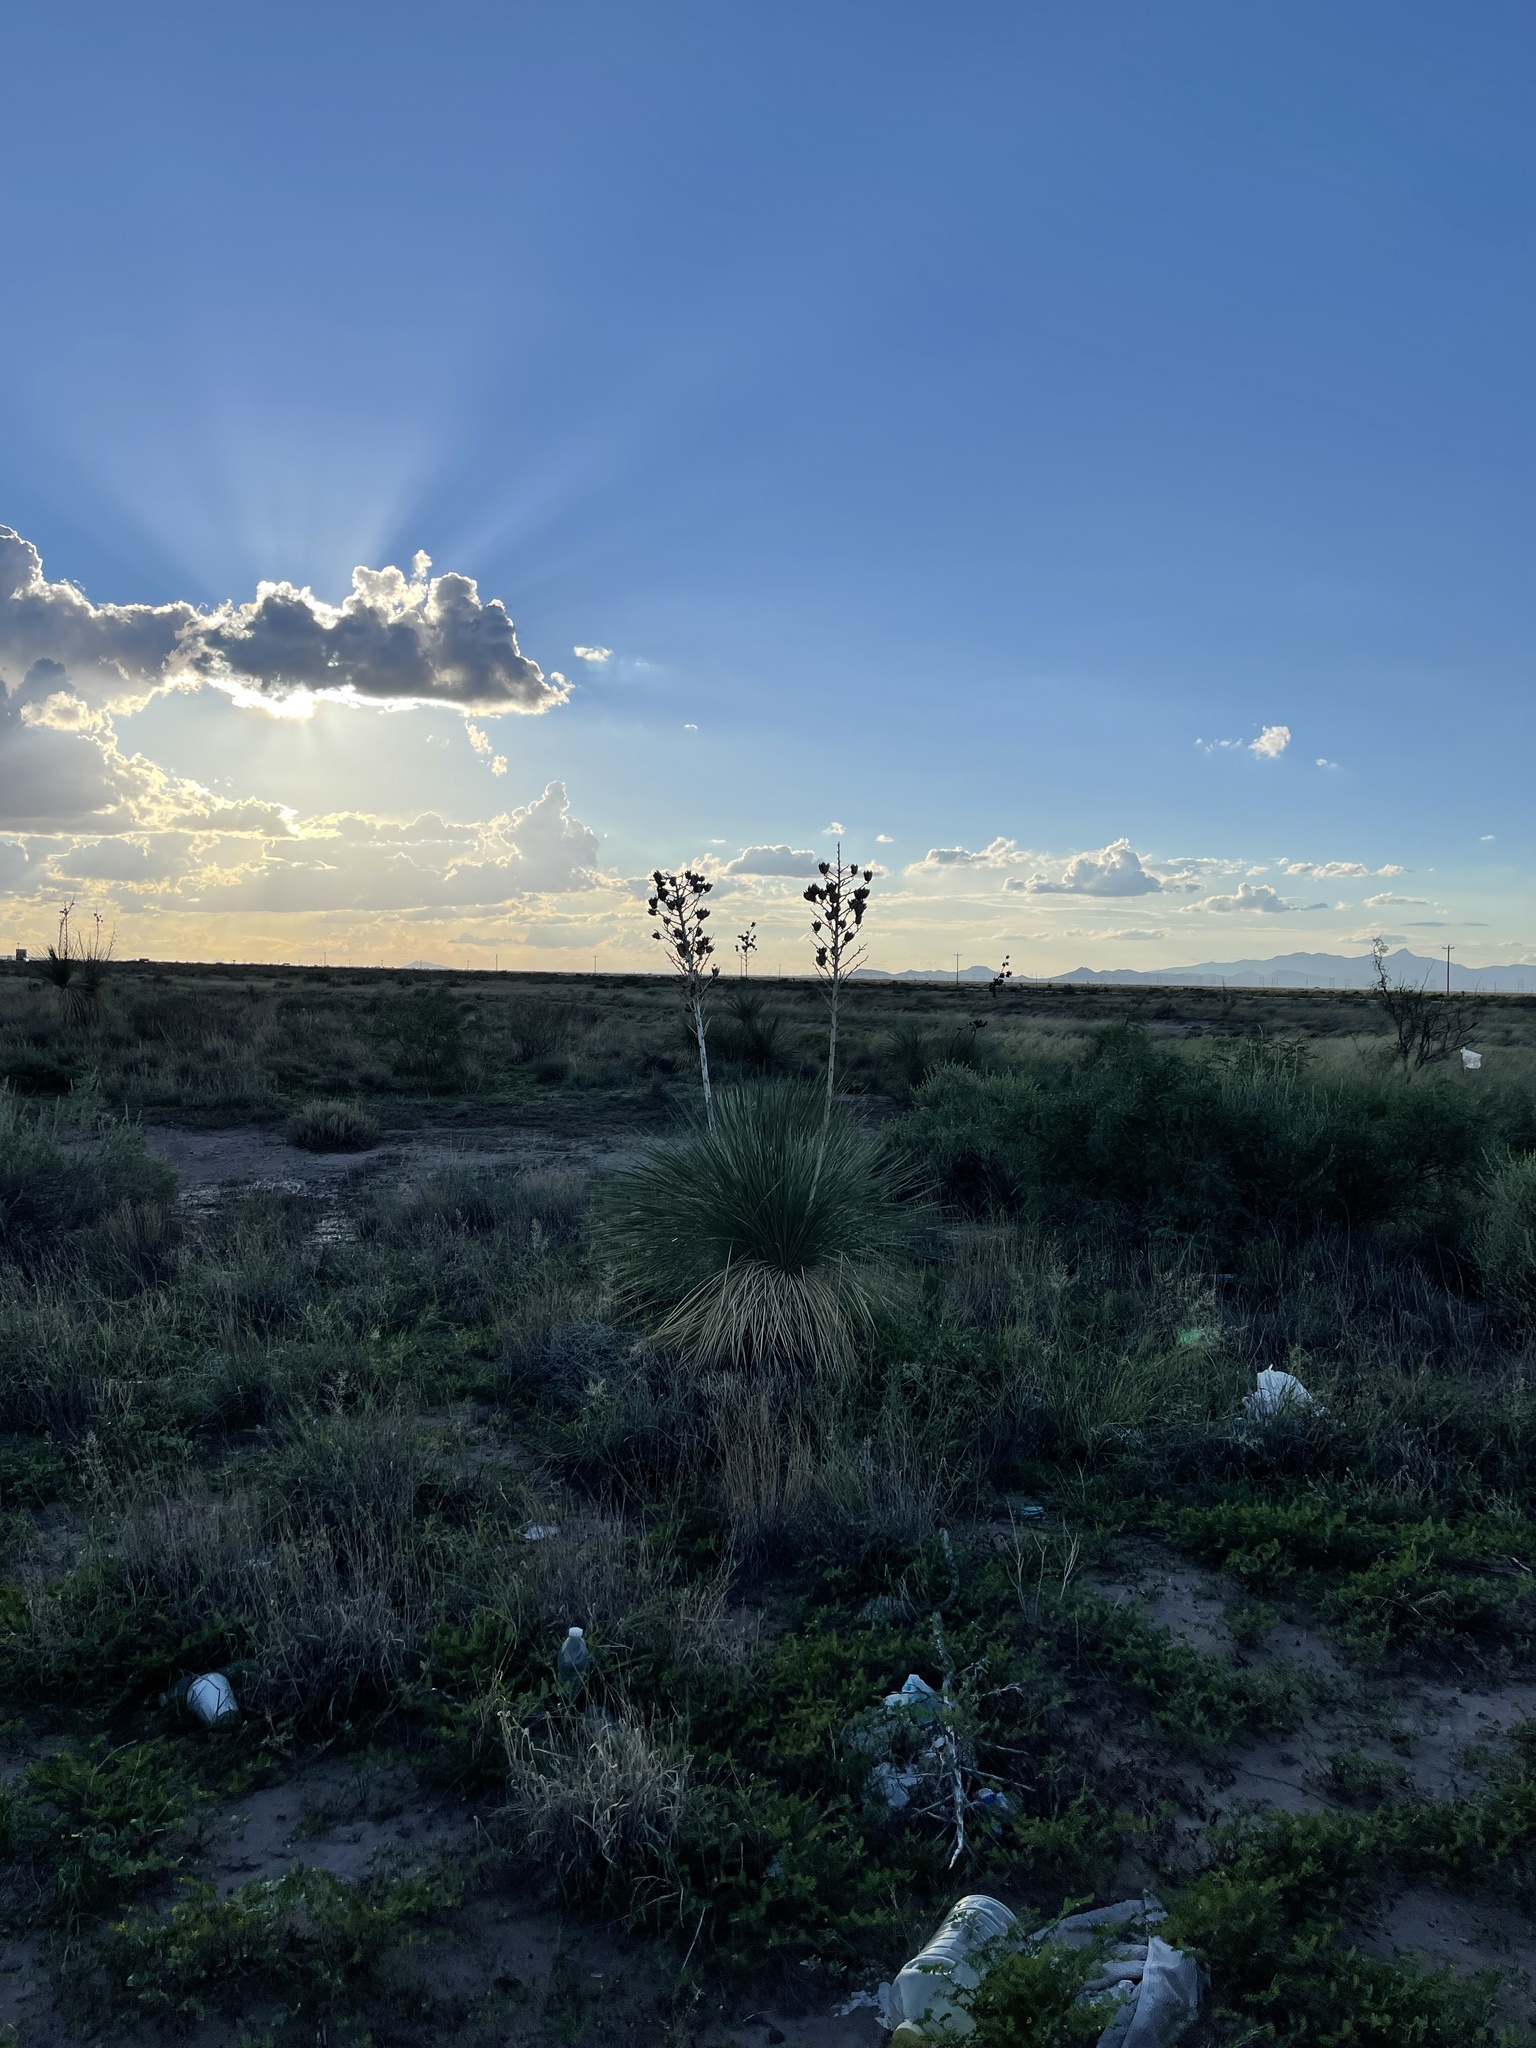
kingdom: Plantae
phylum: Tracheophyta
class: Liliopsida
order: Asparagales
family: Asparagaceae
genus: Yucca
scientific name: Yucca elata
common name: Palmella
